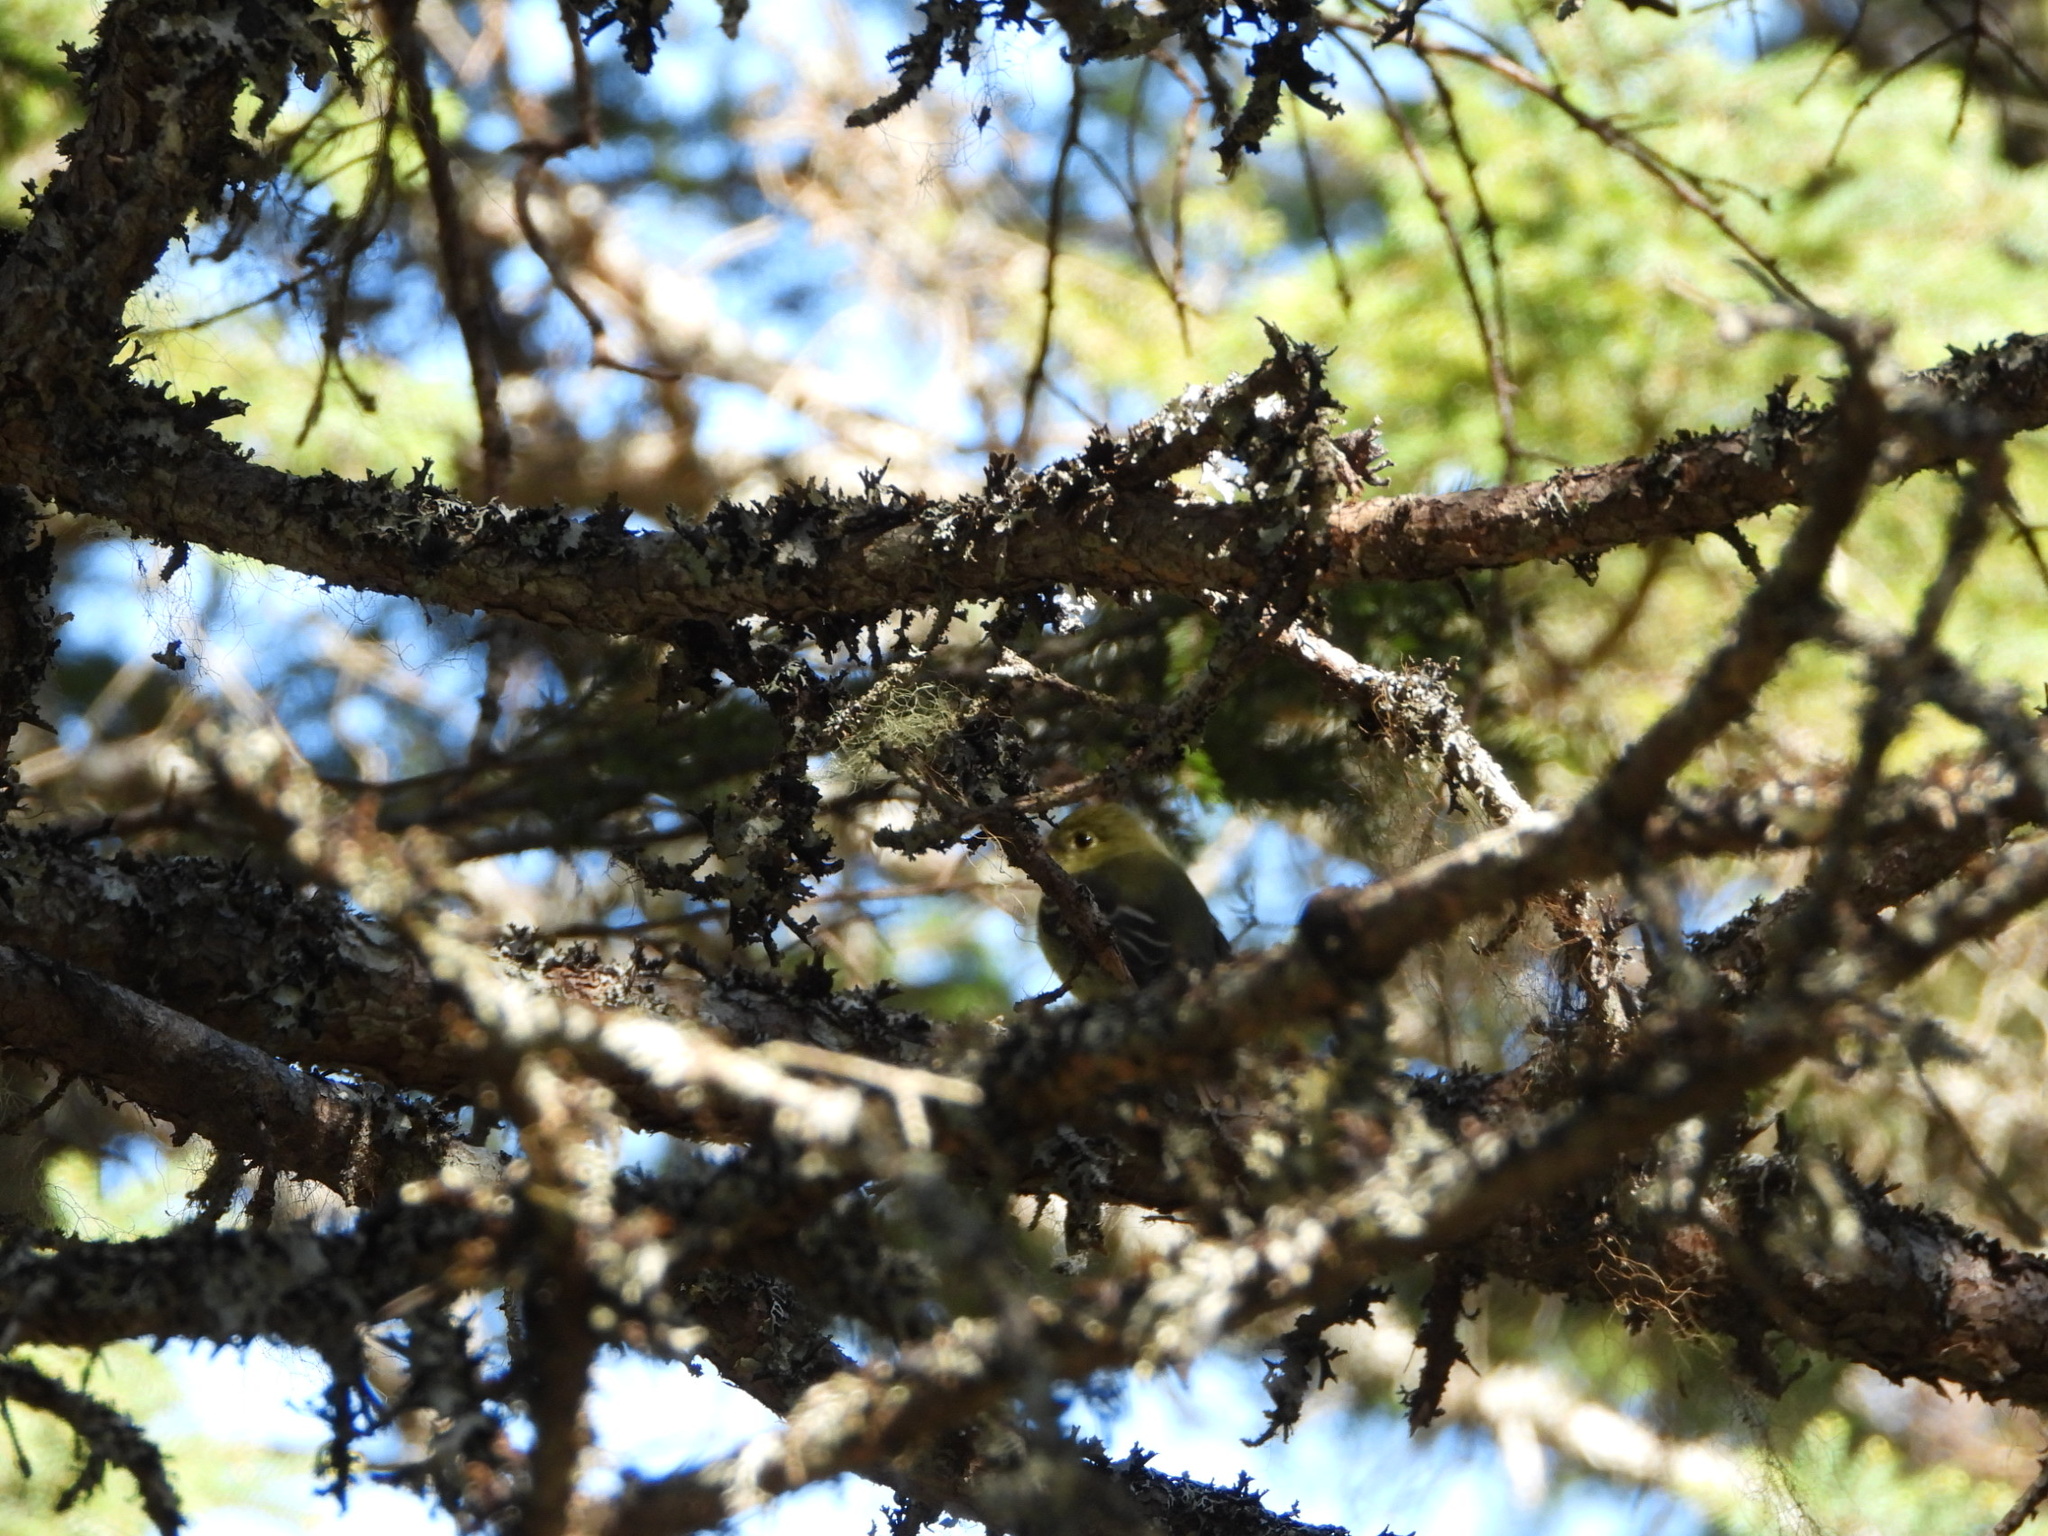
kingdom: Animalia
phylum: Chordata
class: Aves
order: Passeriformes
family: Tyrannidae
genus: Empidonax
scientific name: Empidonax flaviventris
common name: Yellow-bellied flycatcher
